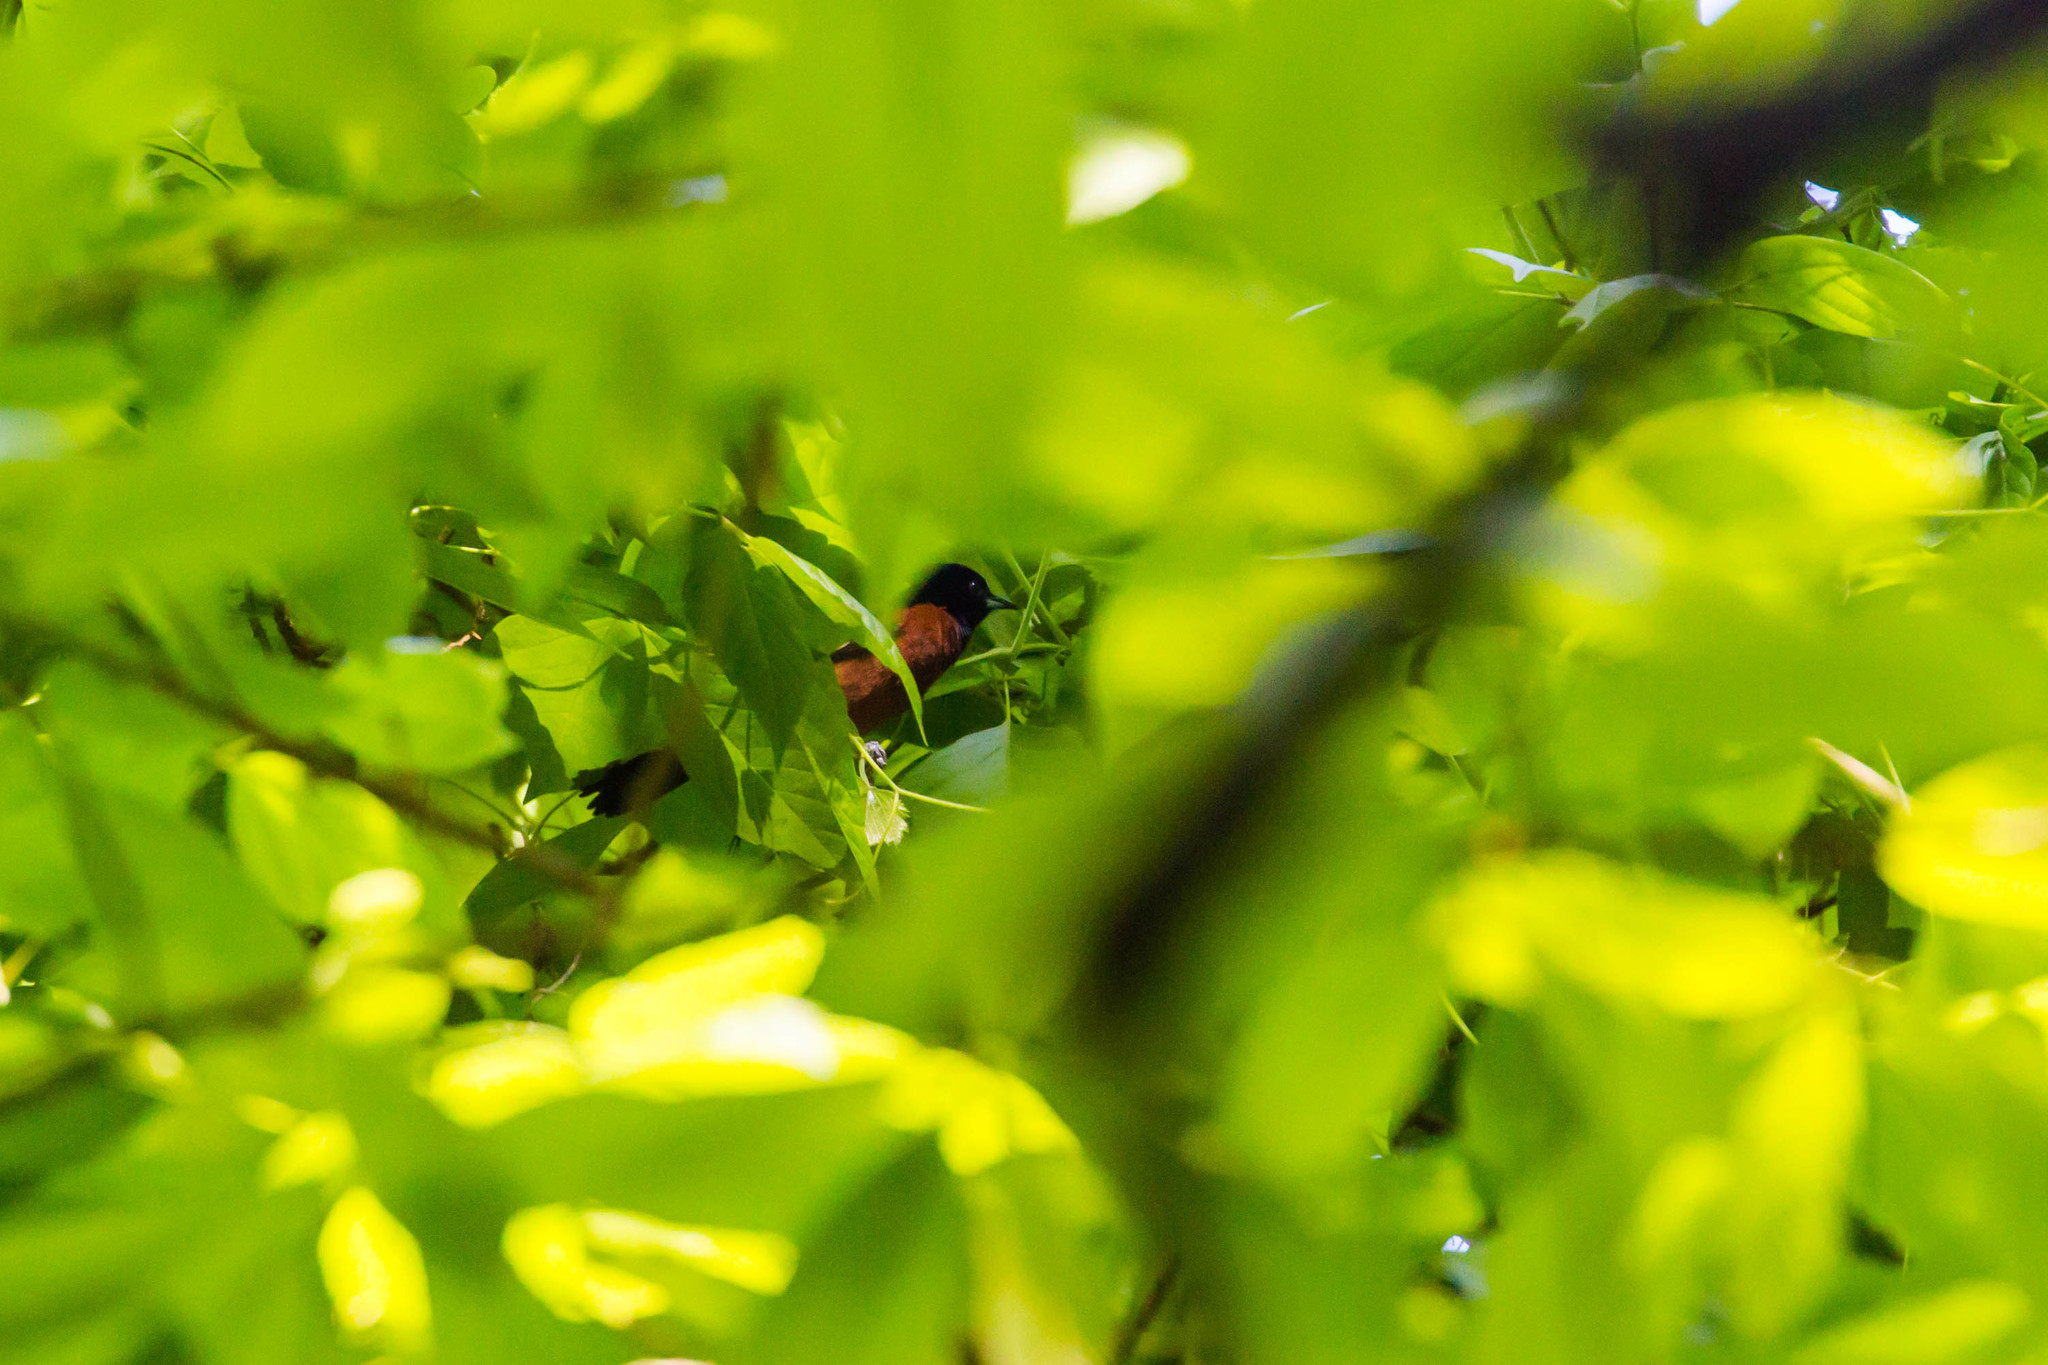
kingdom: Animalia
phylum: Chordata
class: Aves
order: Passeriformes
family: Icteridae
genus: Icterus
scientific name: Icterus spurius
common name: Orchard oriole
